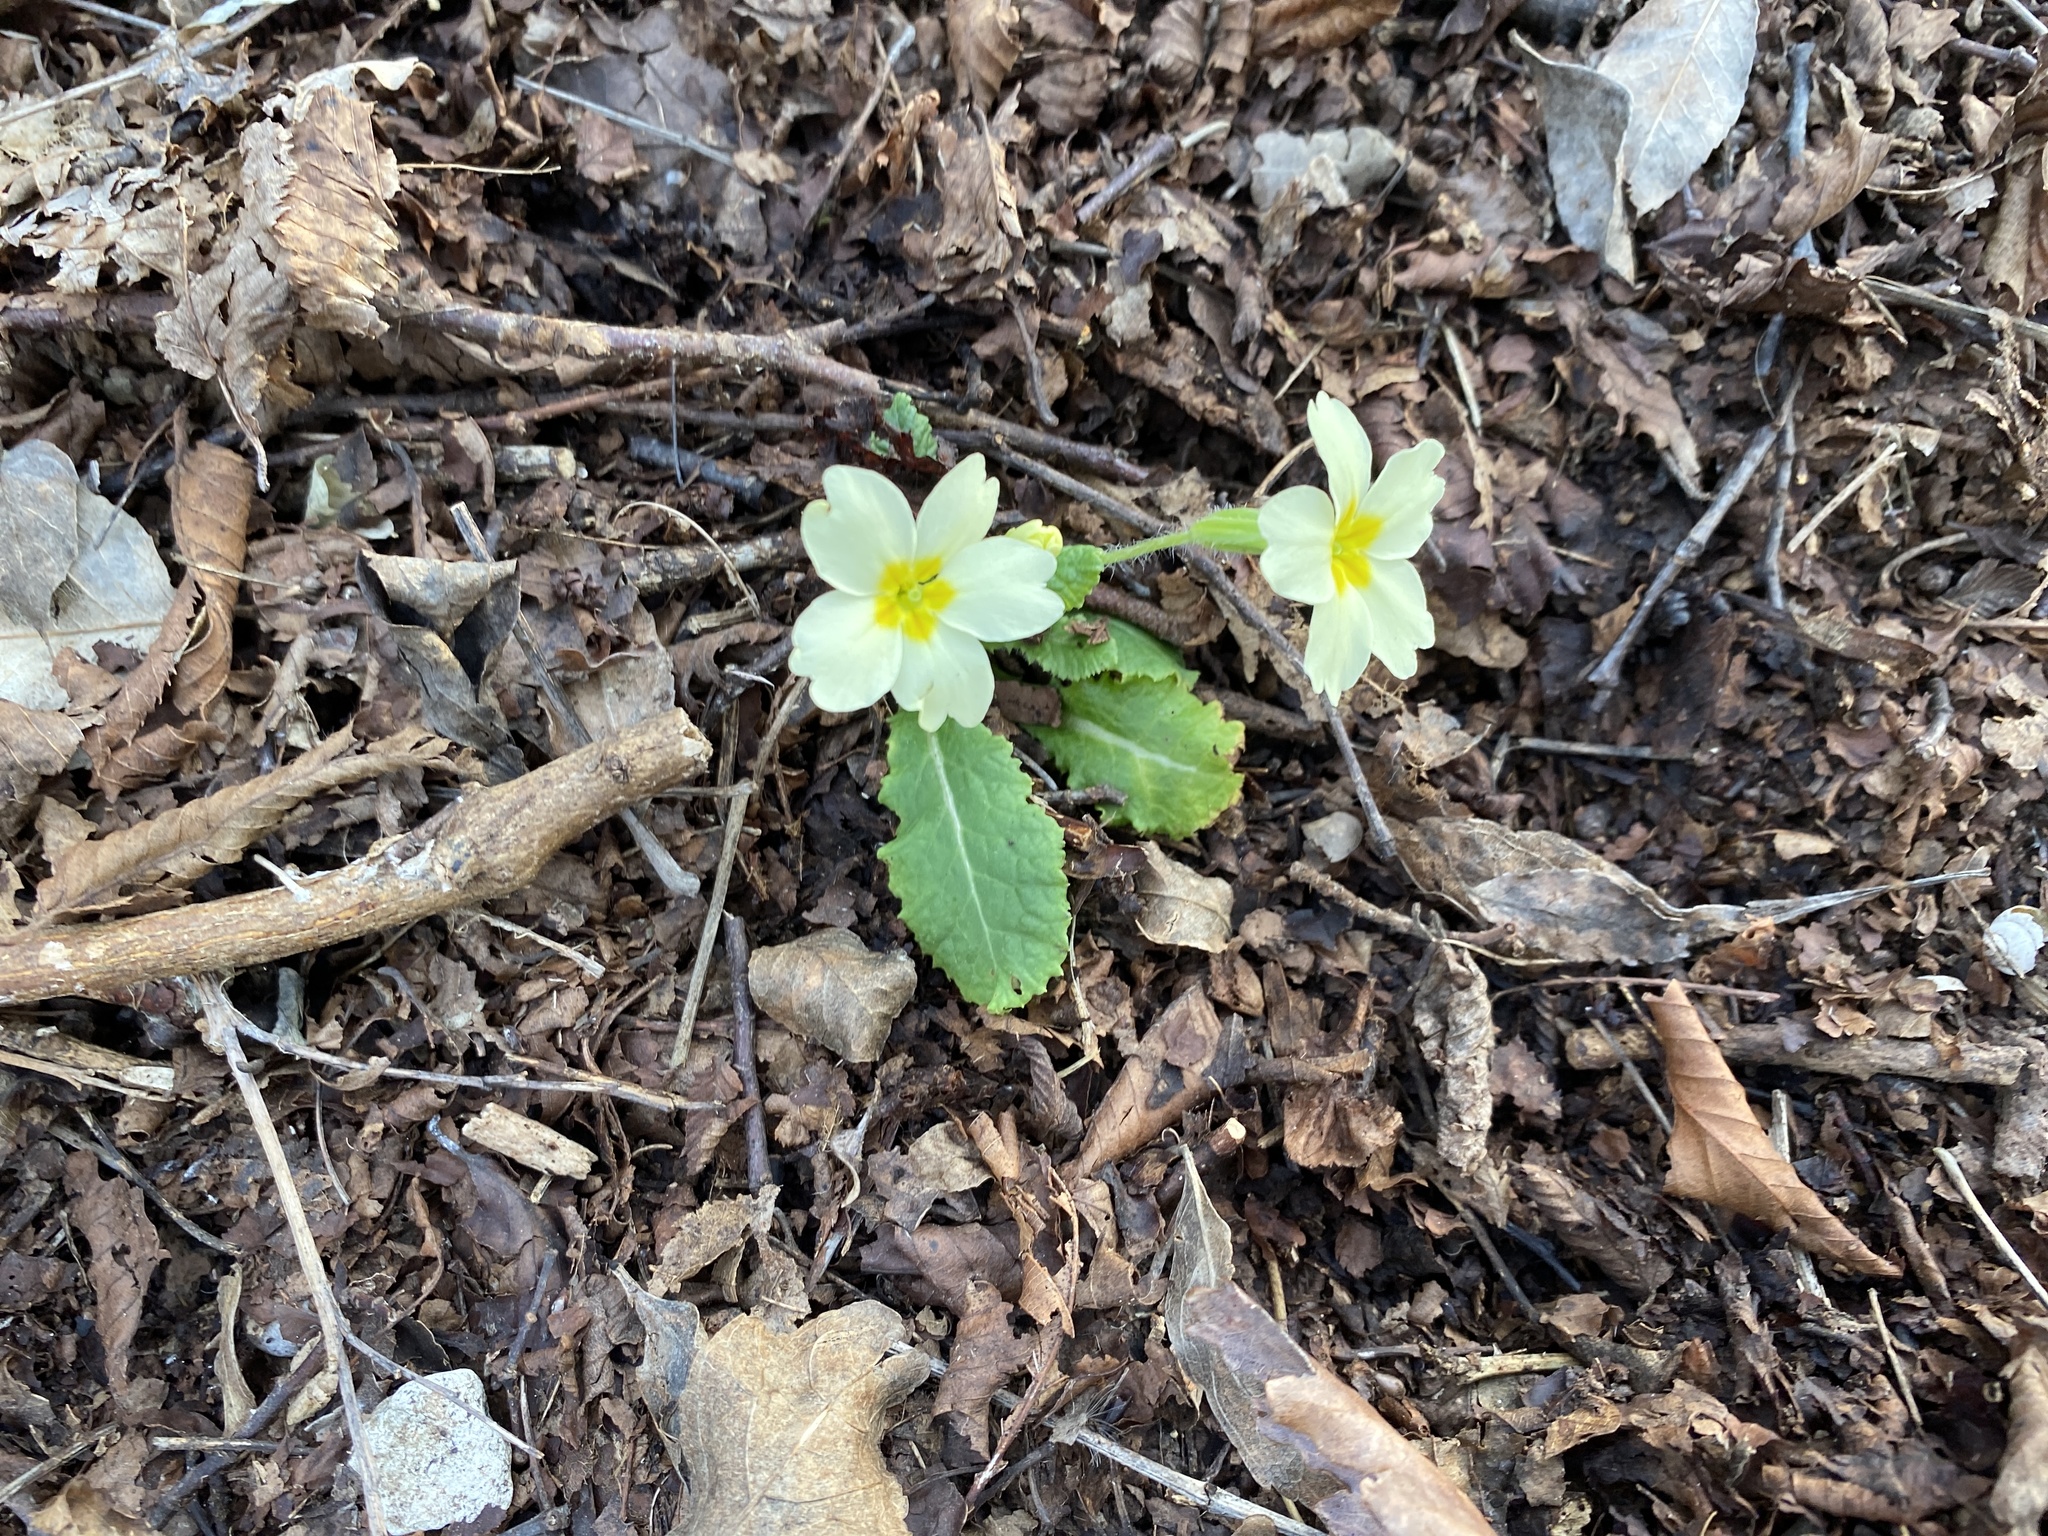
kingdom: Plantae
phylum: Tracheophyta
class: Magnoliopsida
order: Ericales
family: Primulaceae
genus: Primula
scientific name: Primula vulgaris
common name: Primrose
